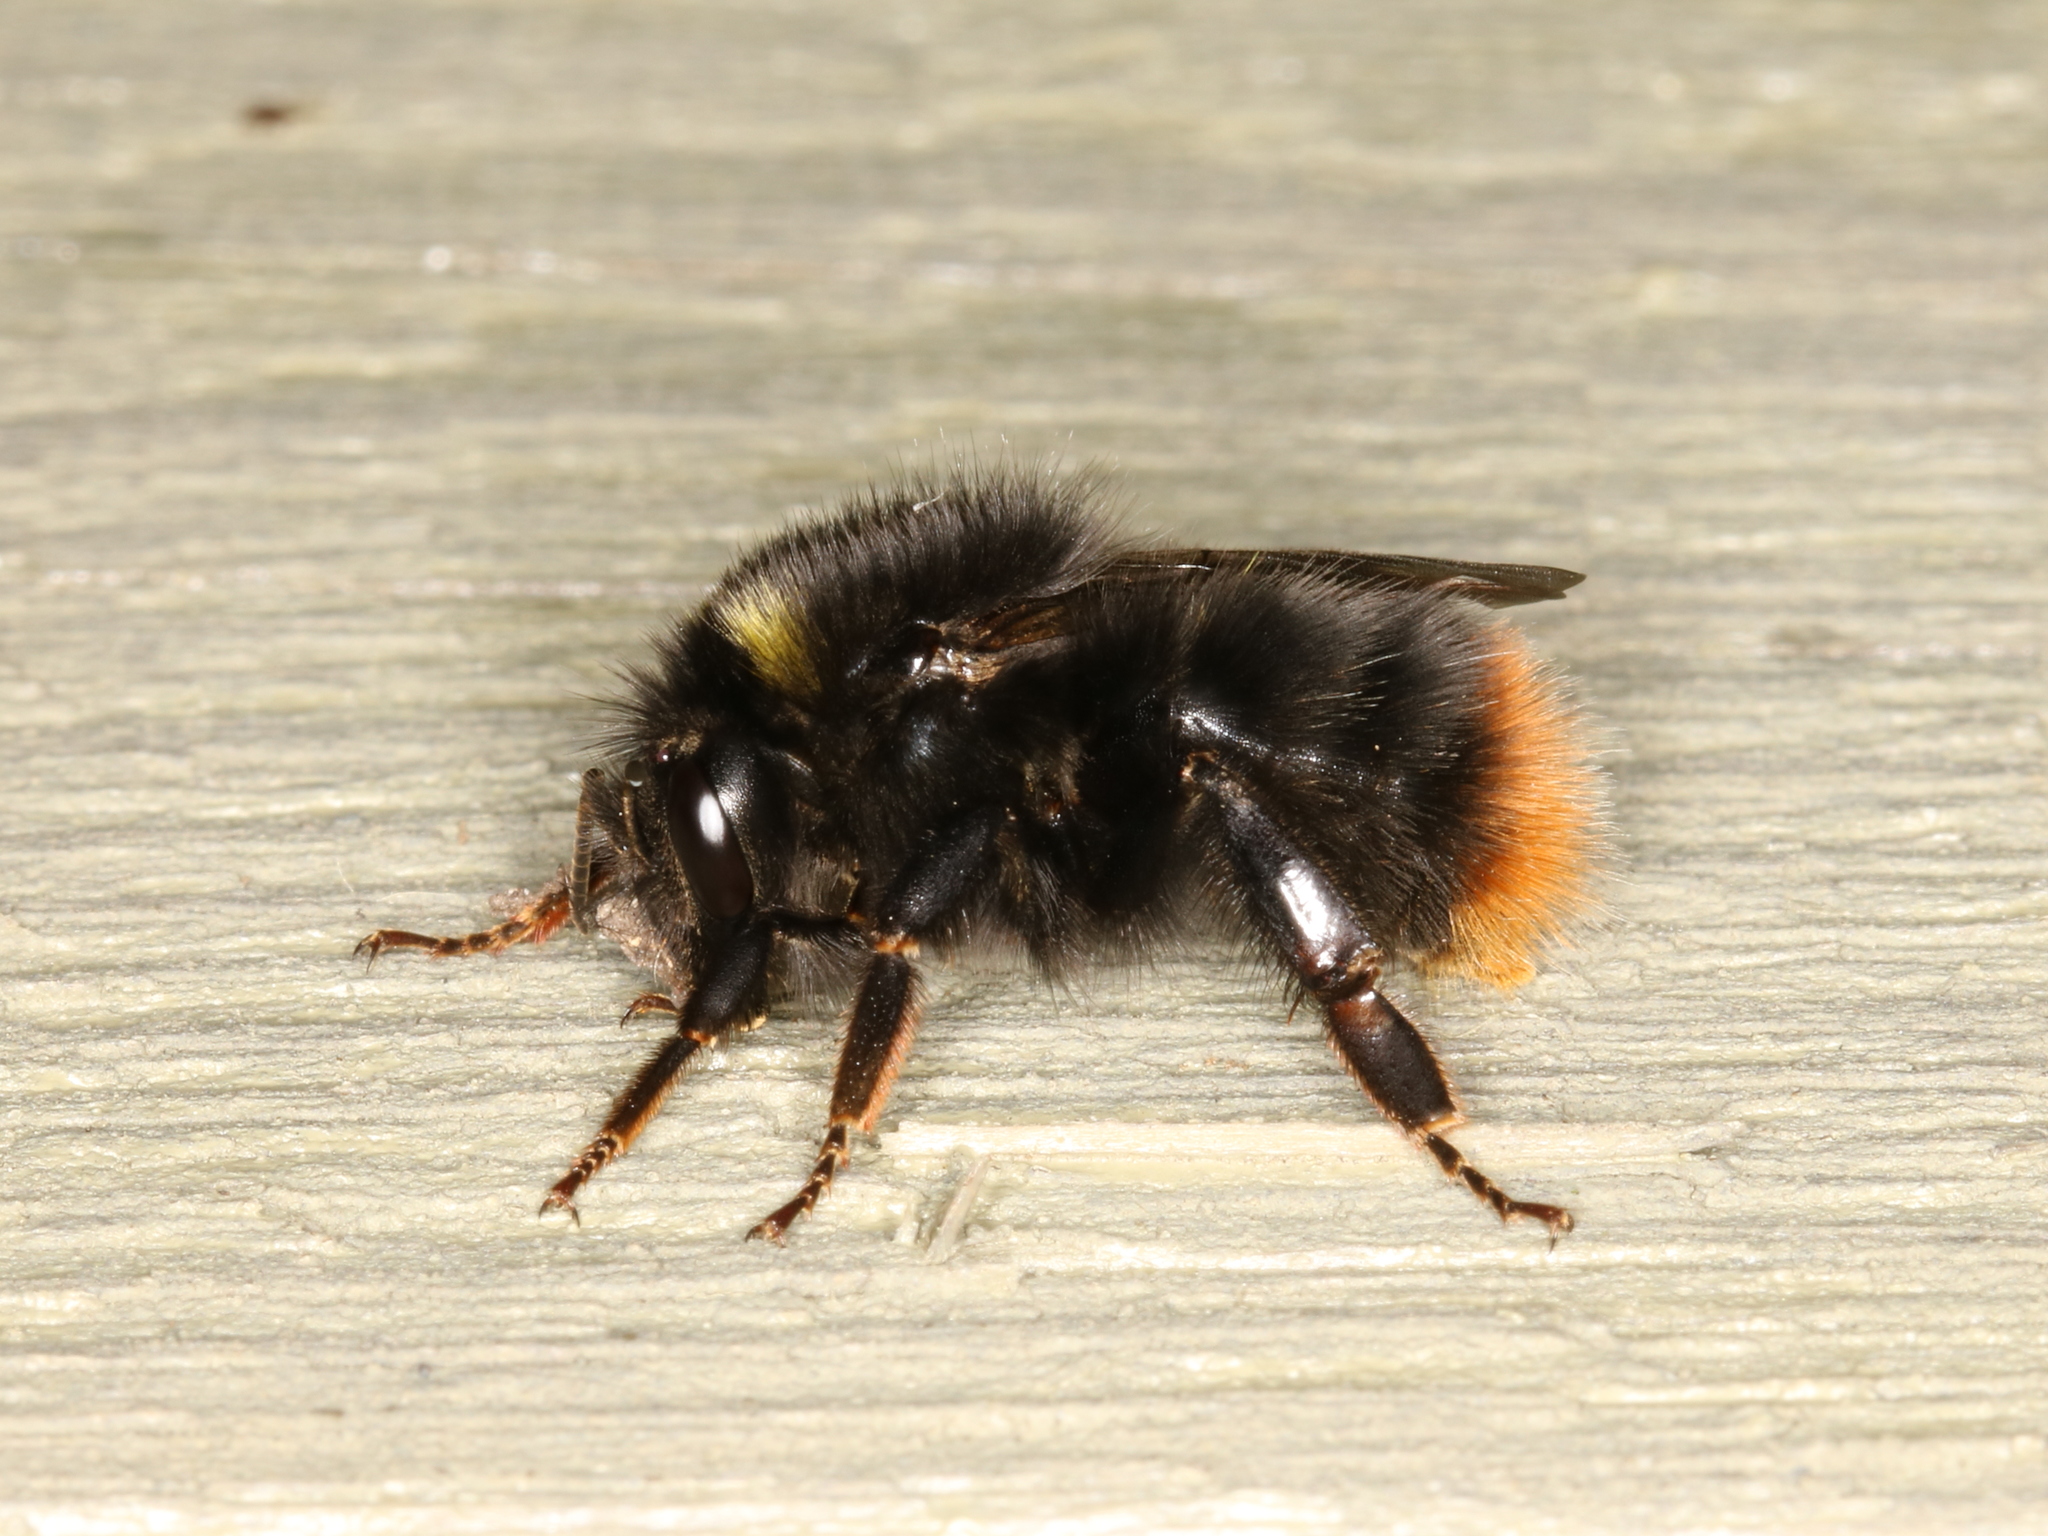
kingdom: Animalia
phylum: Arthropoda
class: Insecta
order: Hymenoptera
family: Apidae
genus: Bombus
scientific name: Bombus pratorum
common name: Early humble-bee
